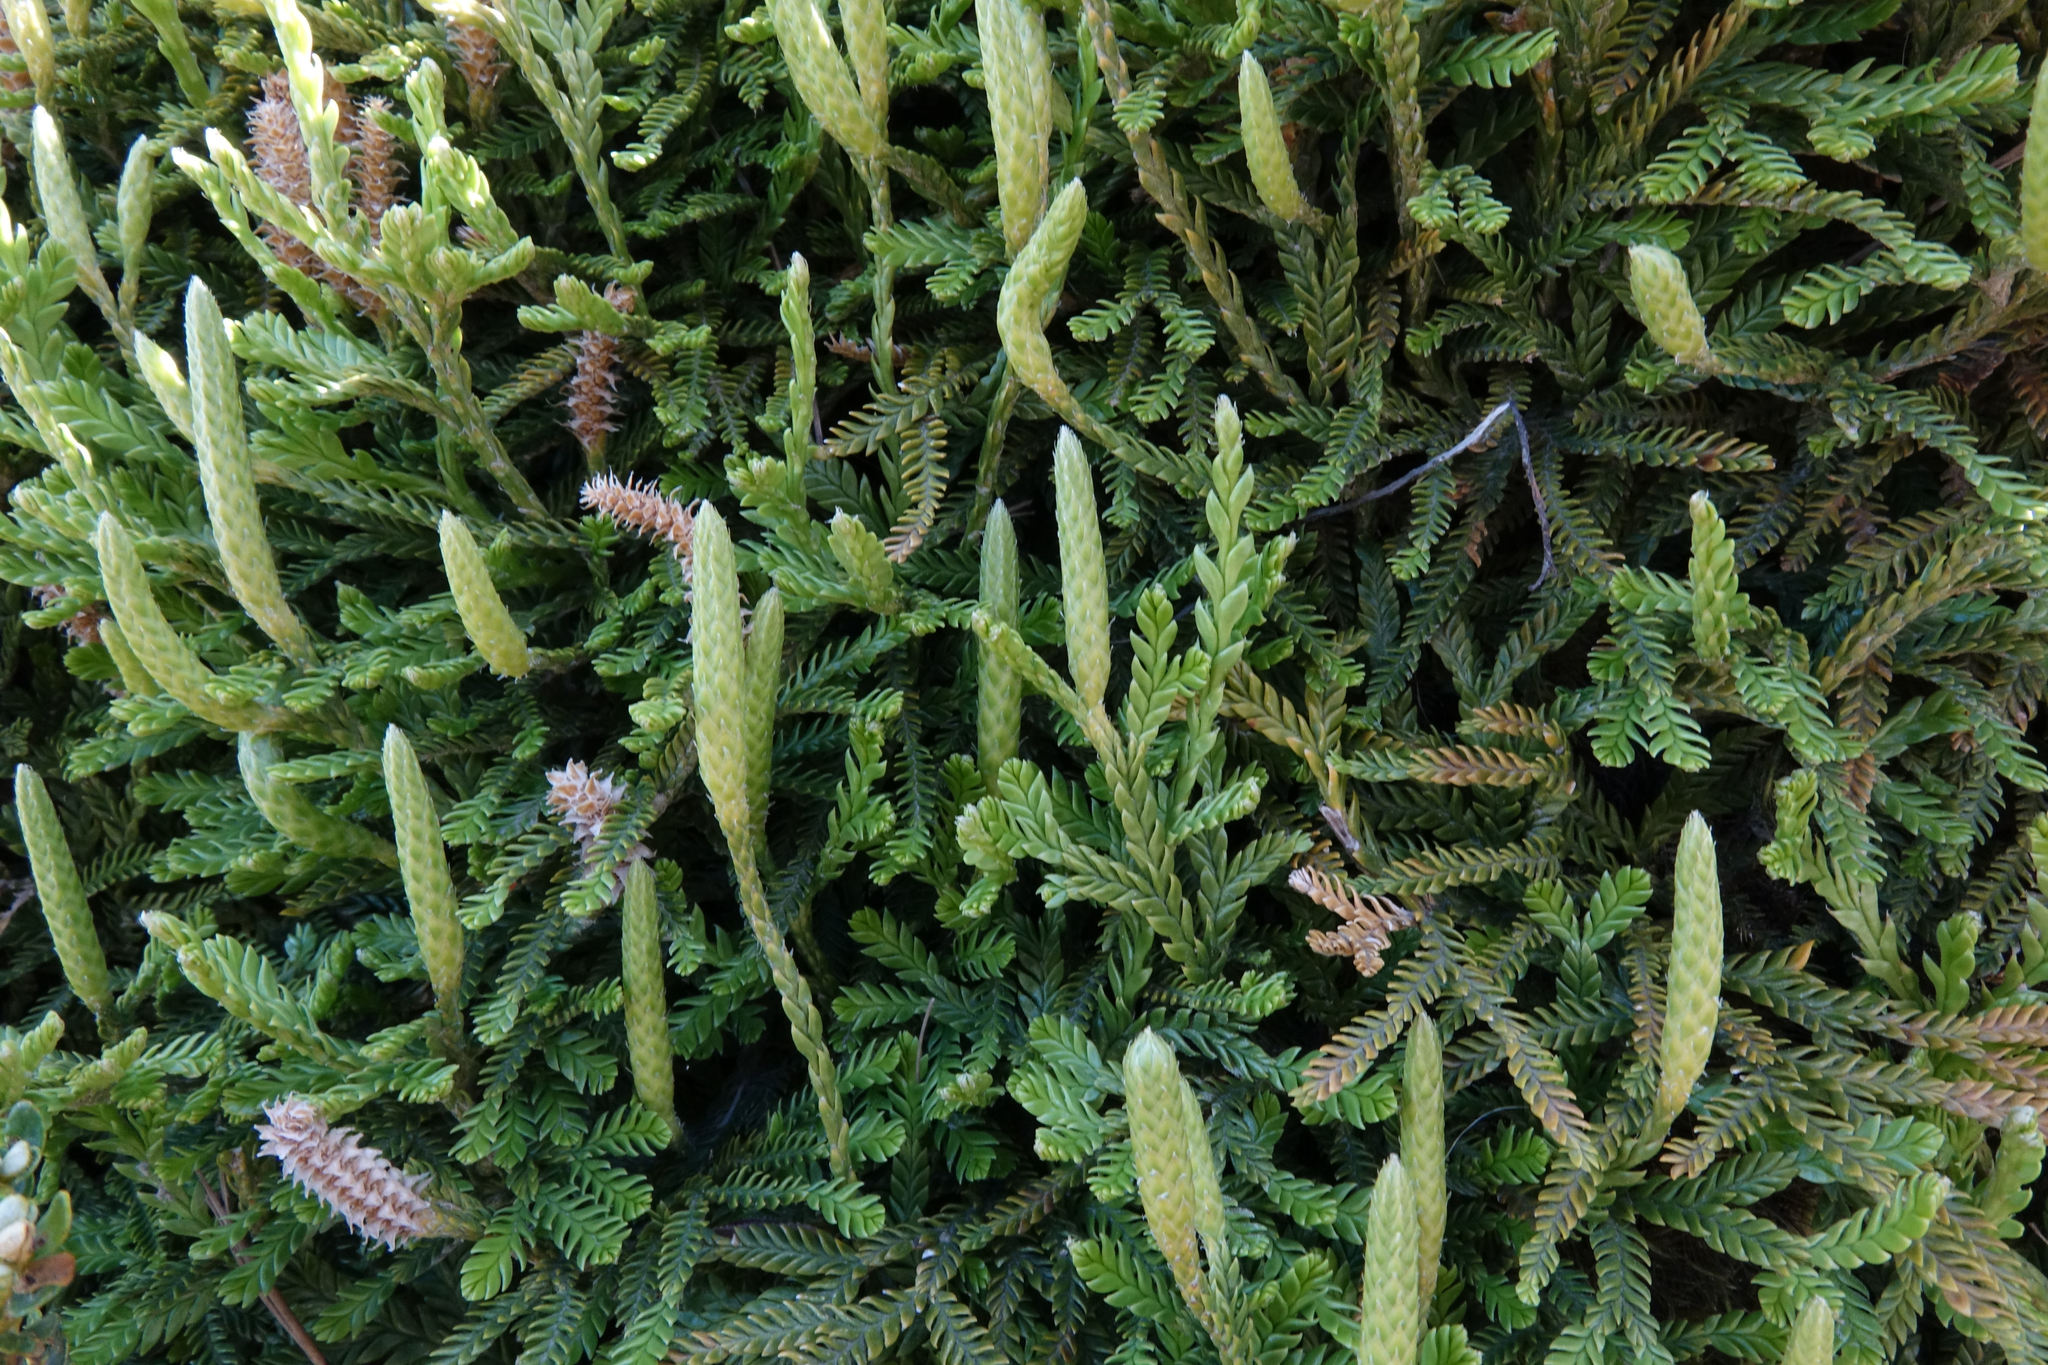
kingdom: Plantae
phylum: Tracheophyta
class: Lycopodiopsida
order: Lycopodiales
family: Lycopodiaceae
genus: Diphasium
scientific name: Diphasium scariosum
